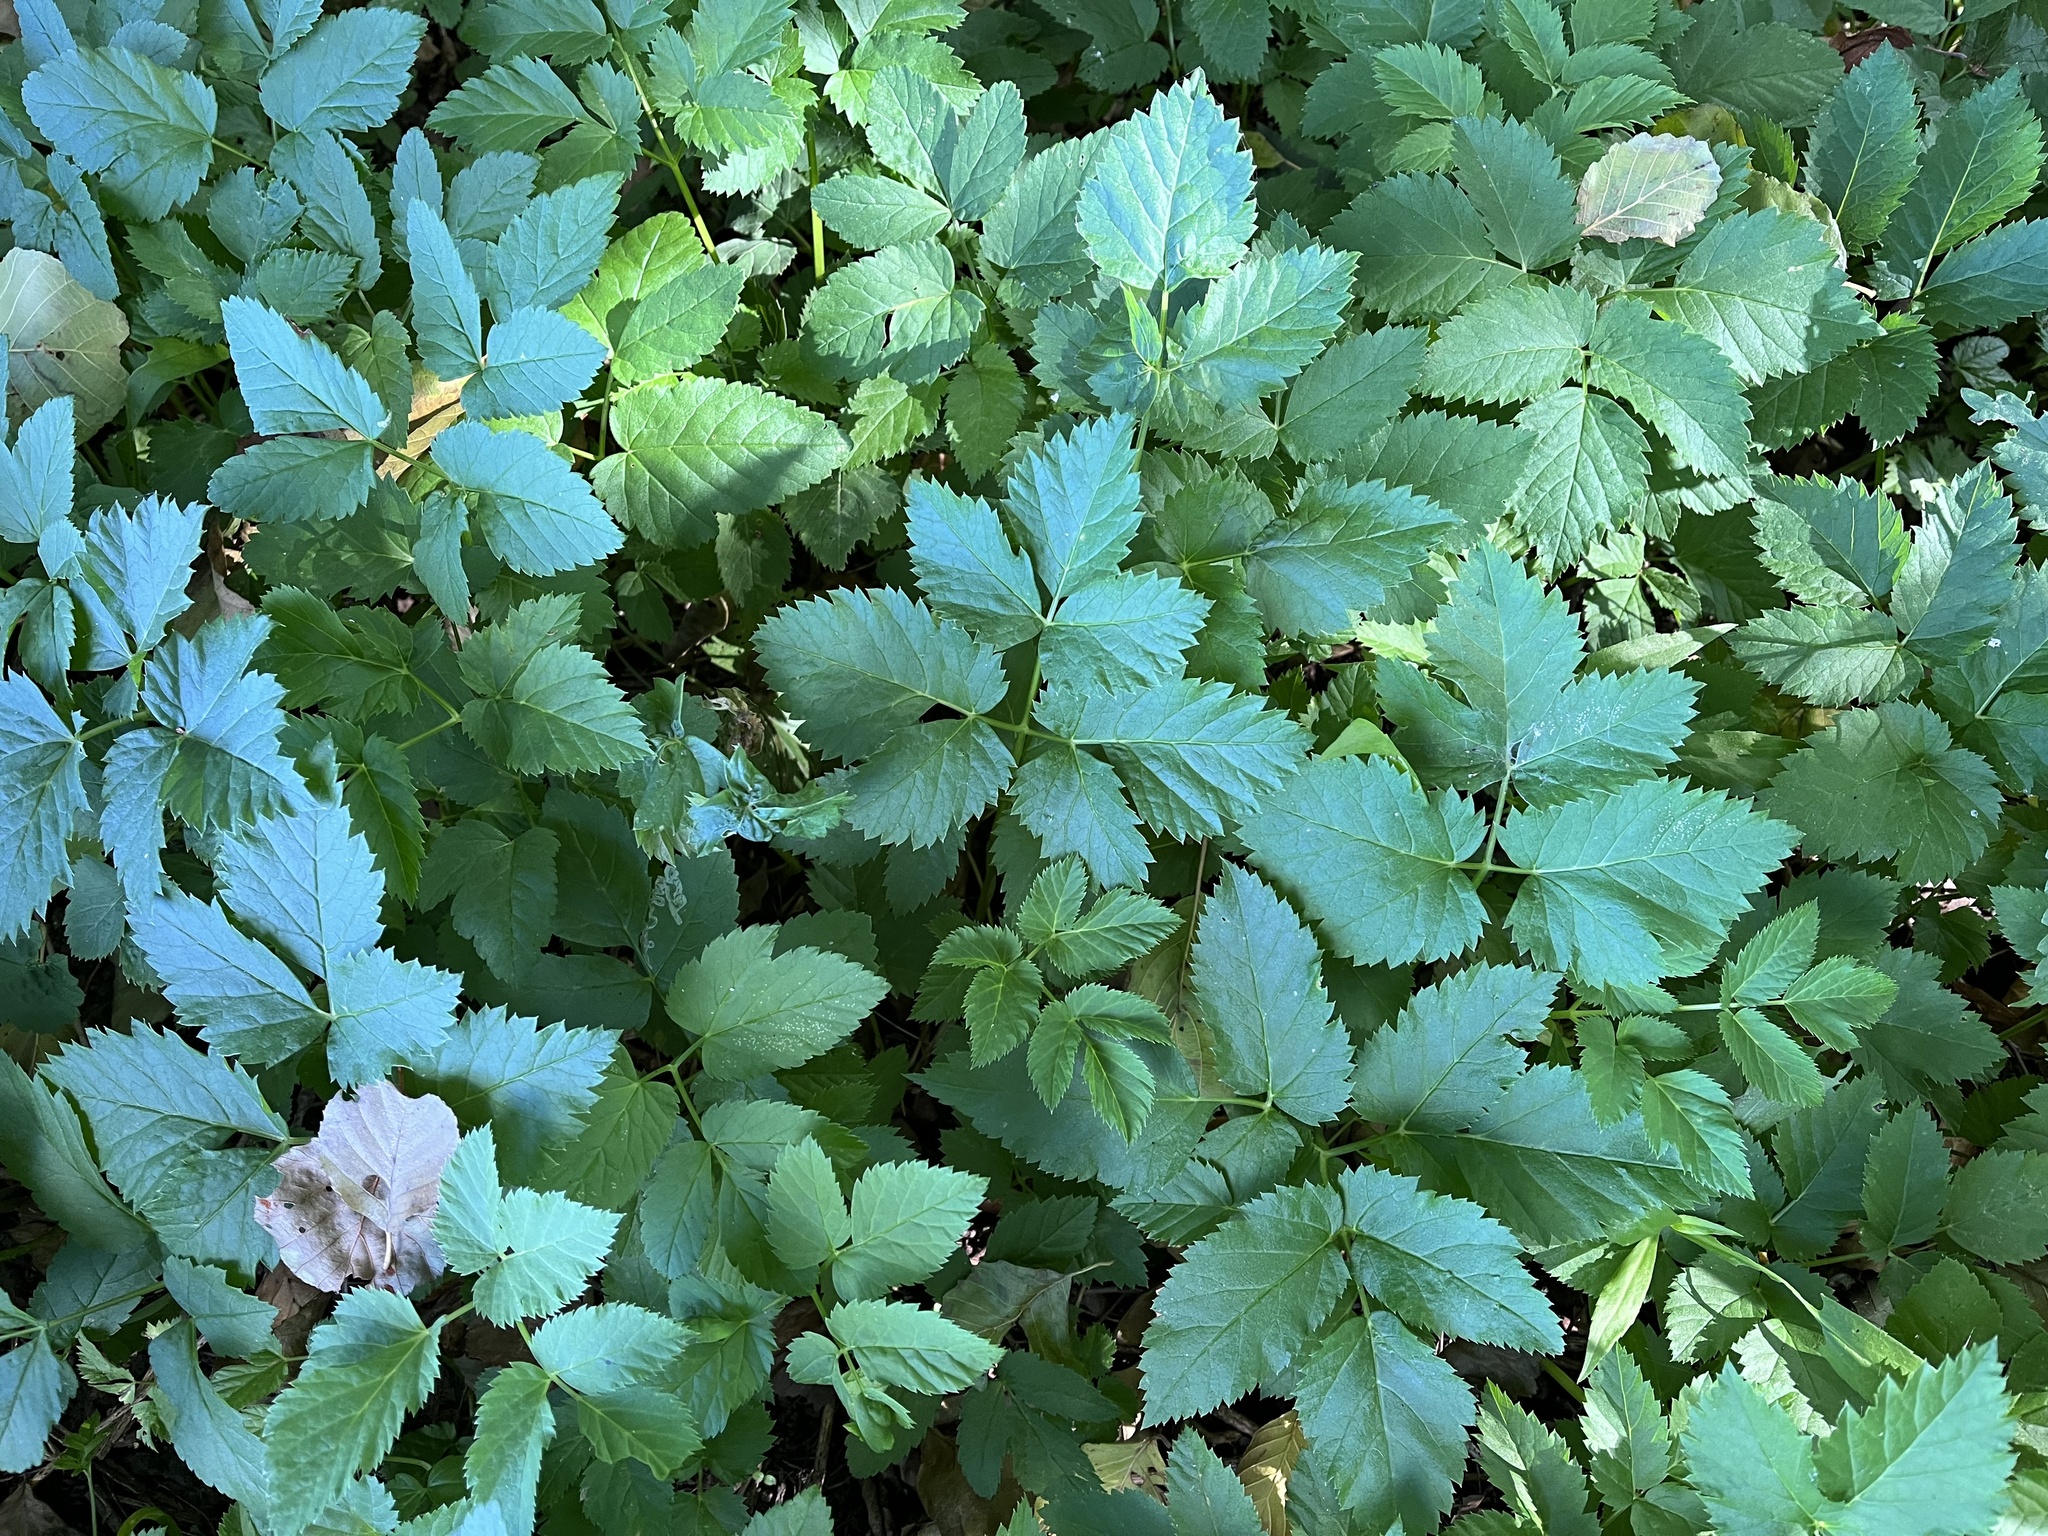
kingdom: Plantae
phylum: Tracheophyta
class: Magnoliopsida
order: Apiales
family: Apiaceae
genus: Aegopodium
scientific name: Aegopodium podagraria
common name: Ground-elder
